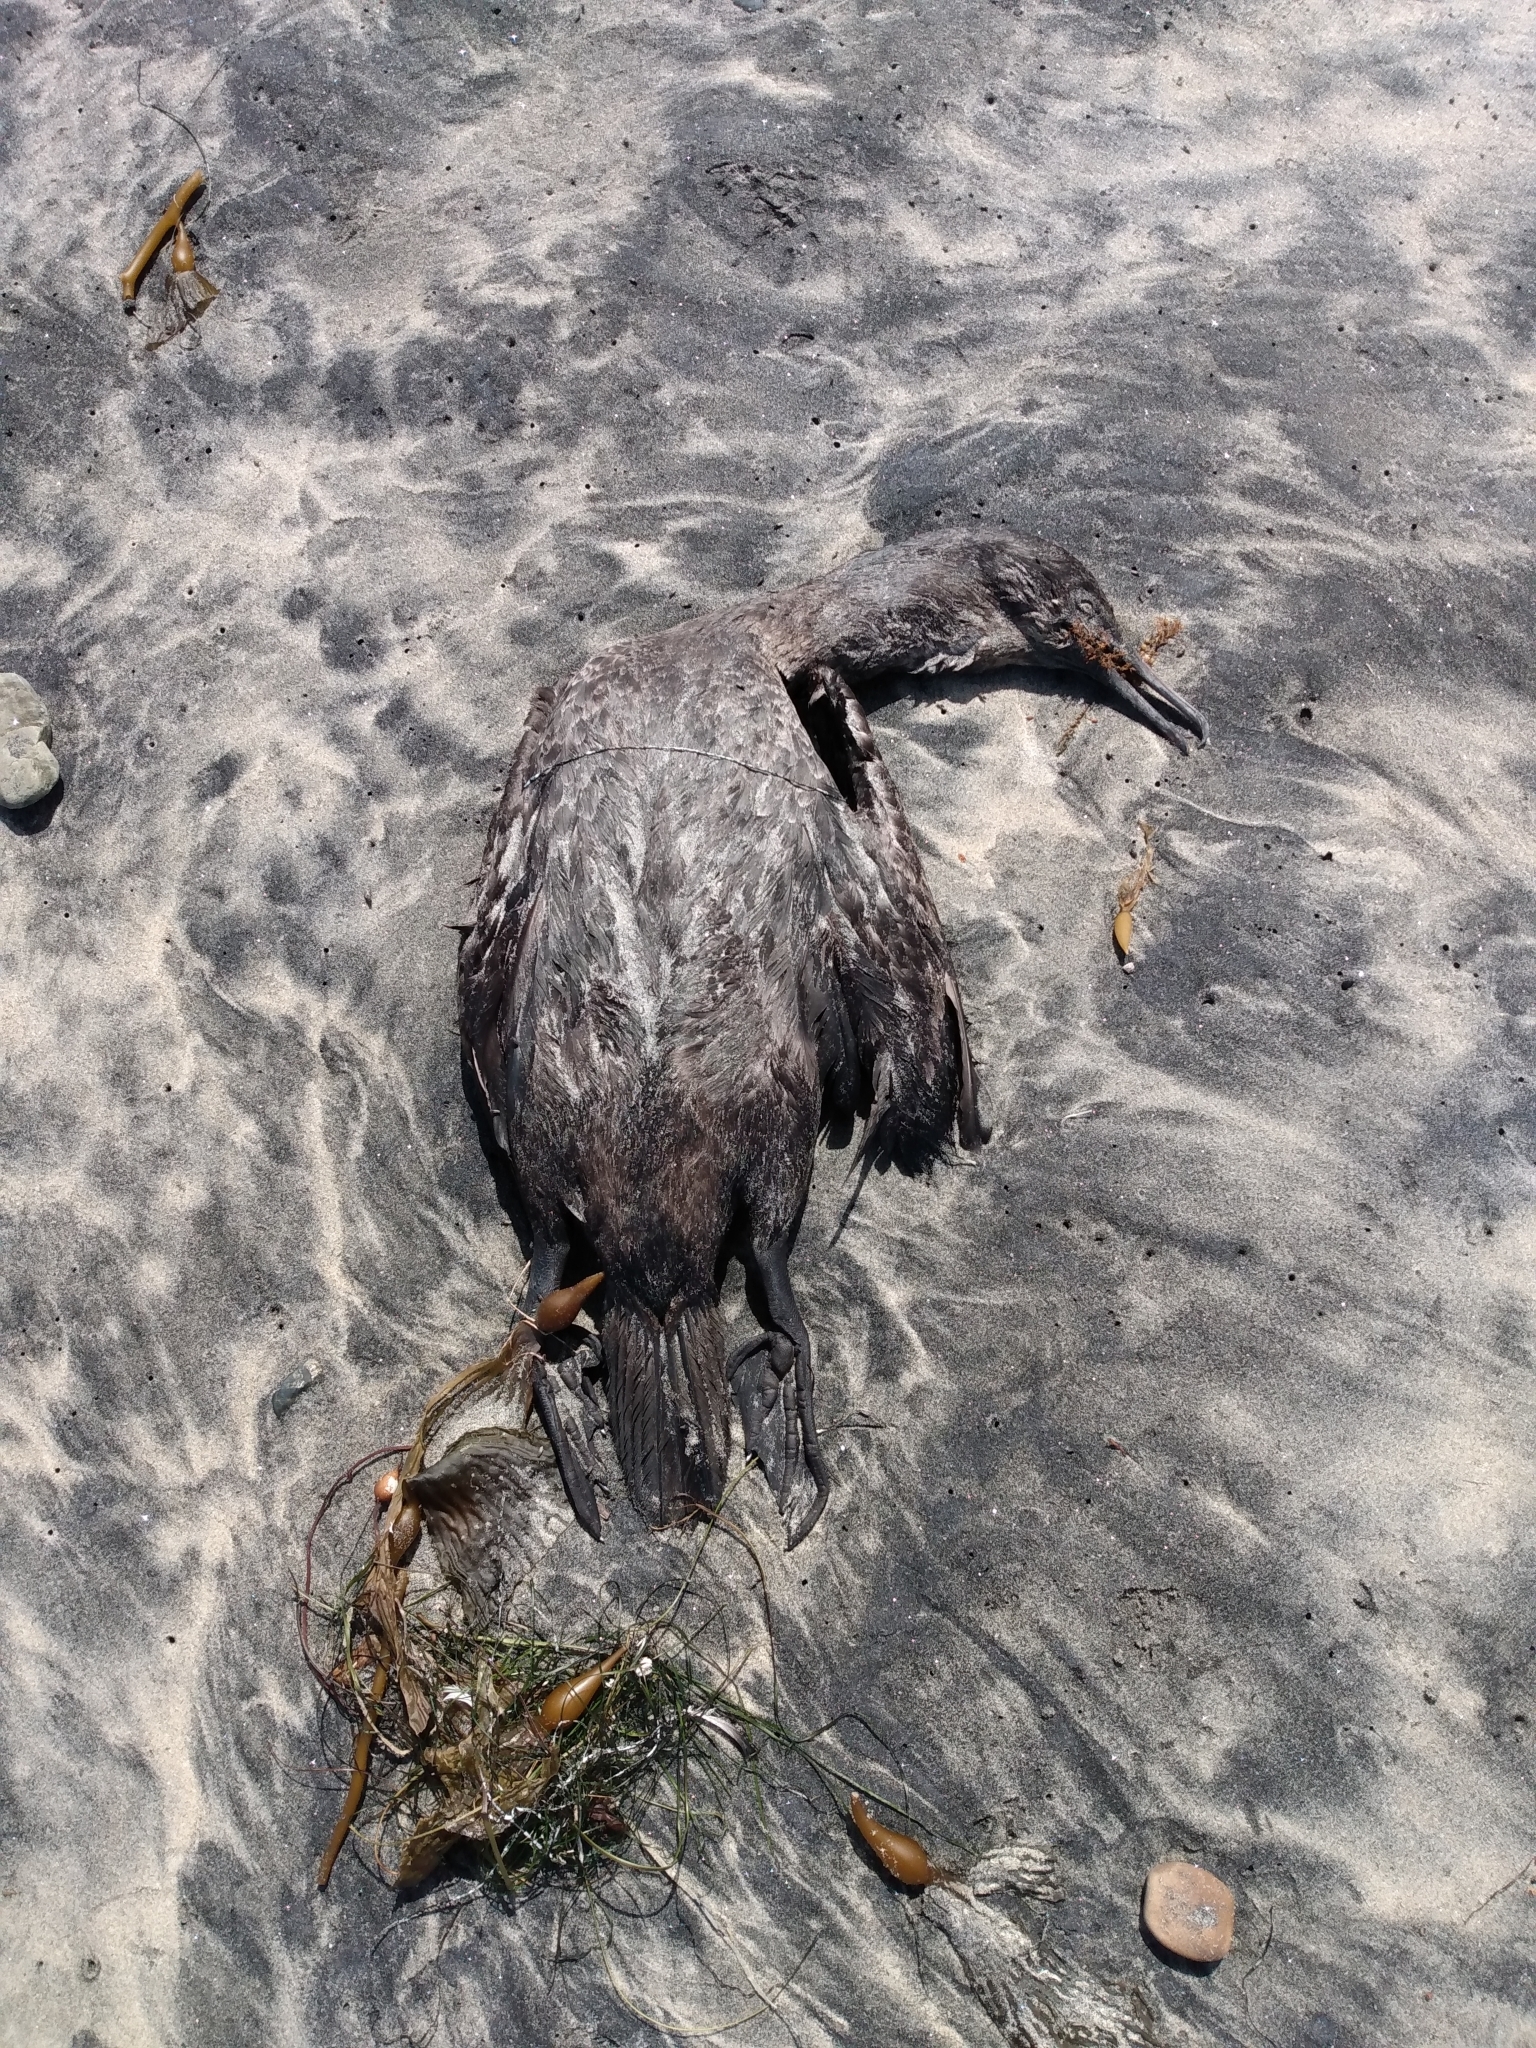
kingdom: Animalia
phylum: Chordata
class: Aves
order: Suliformes
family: Phalacrocoracidae
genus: Urile
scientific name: Urile penicillatus
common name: Brandt's cormorant
